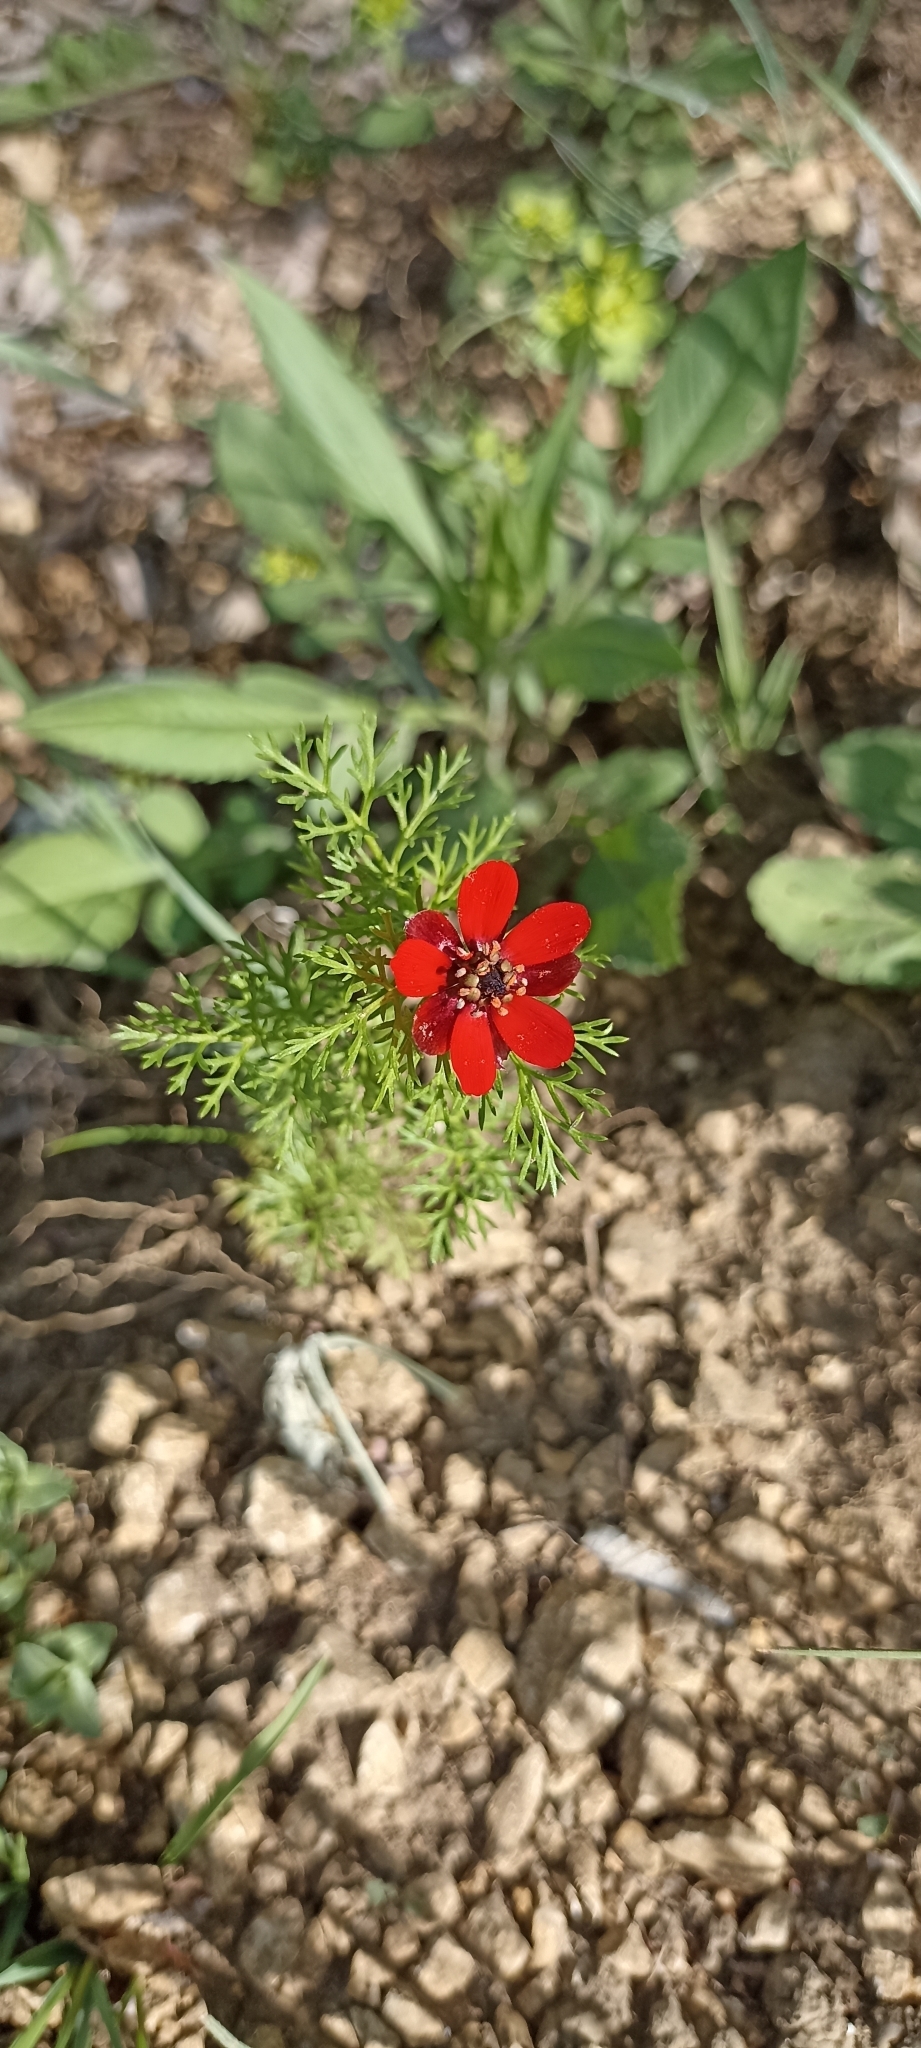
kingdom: Plantae
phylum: Tracheophyta
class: Magnoliopsida
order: Ranunculales
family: Ranunculaceae
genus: Adonis
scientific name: Adonis annua
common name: Pheasant's-eye
